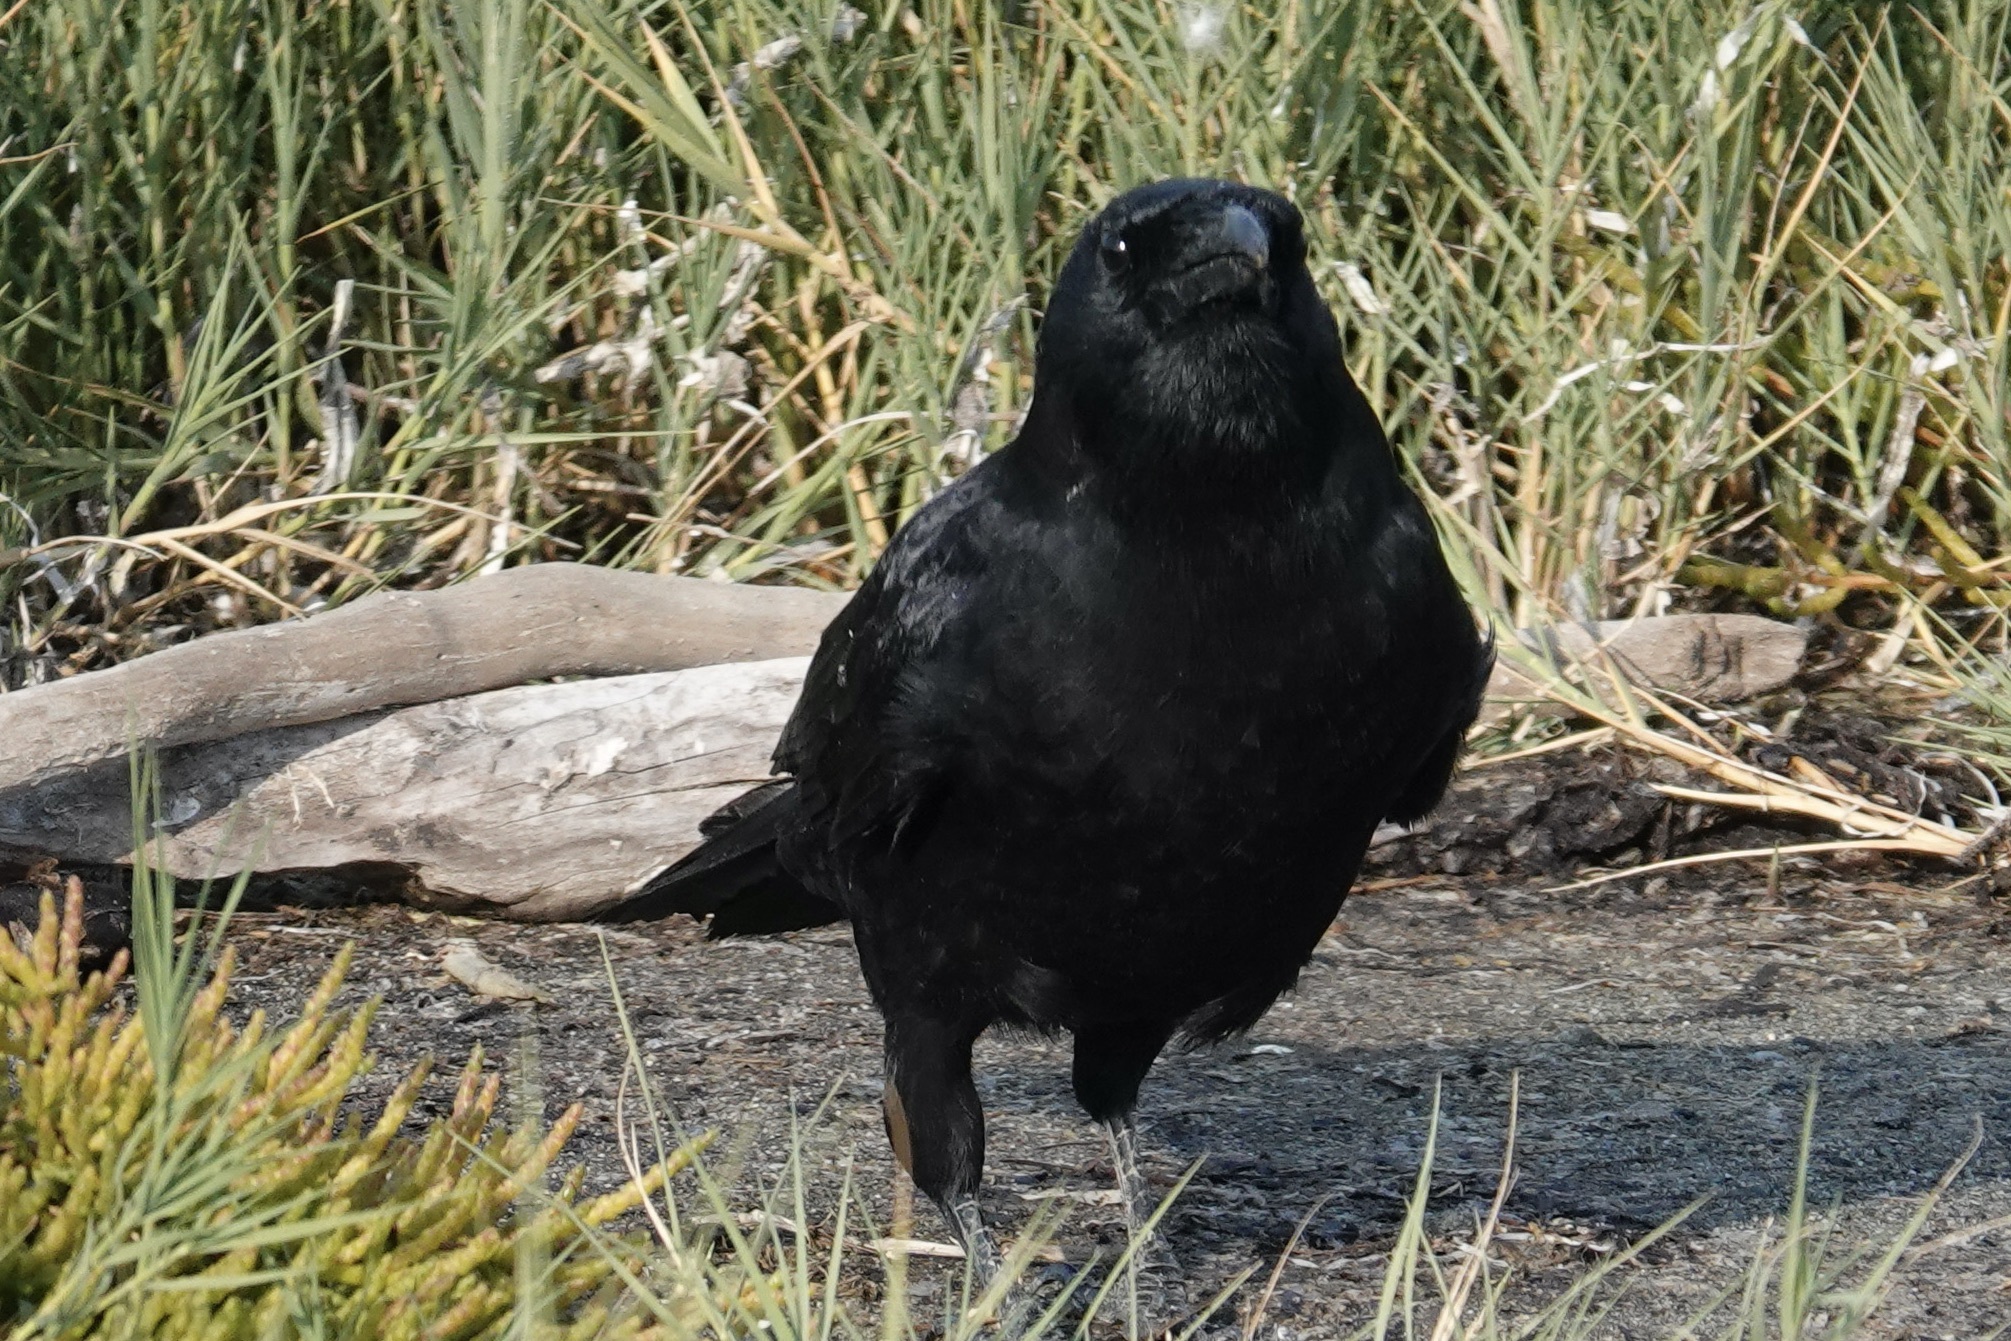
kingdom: Animalia
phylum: Chordata
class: Aves
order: Passeriformes
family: Corvidae
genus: Corvus
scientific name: Corvus brachyrhynchos
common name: American crow
